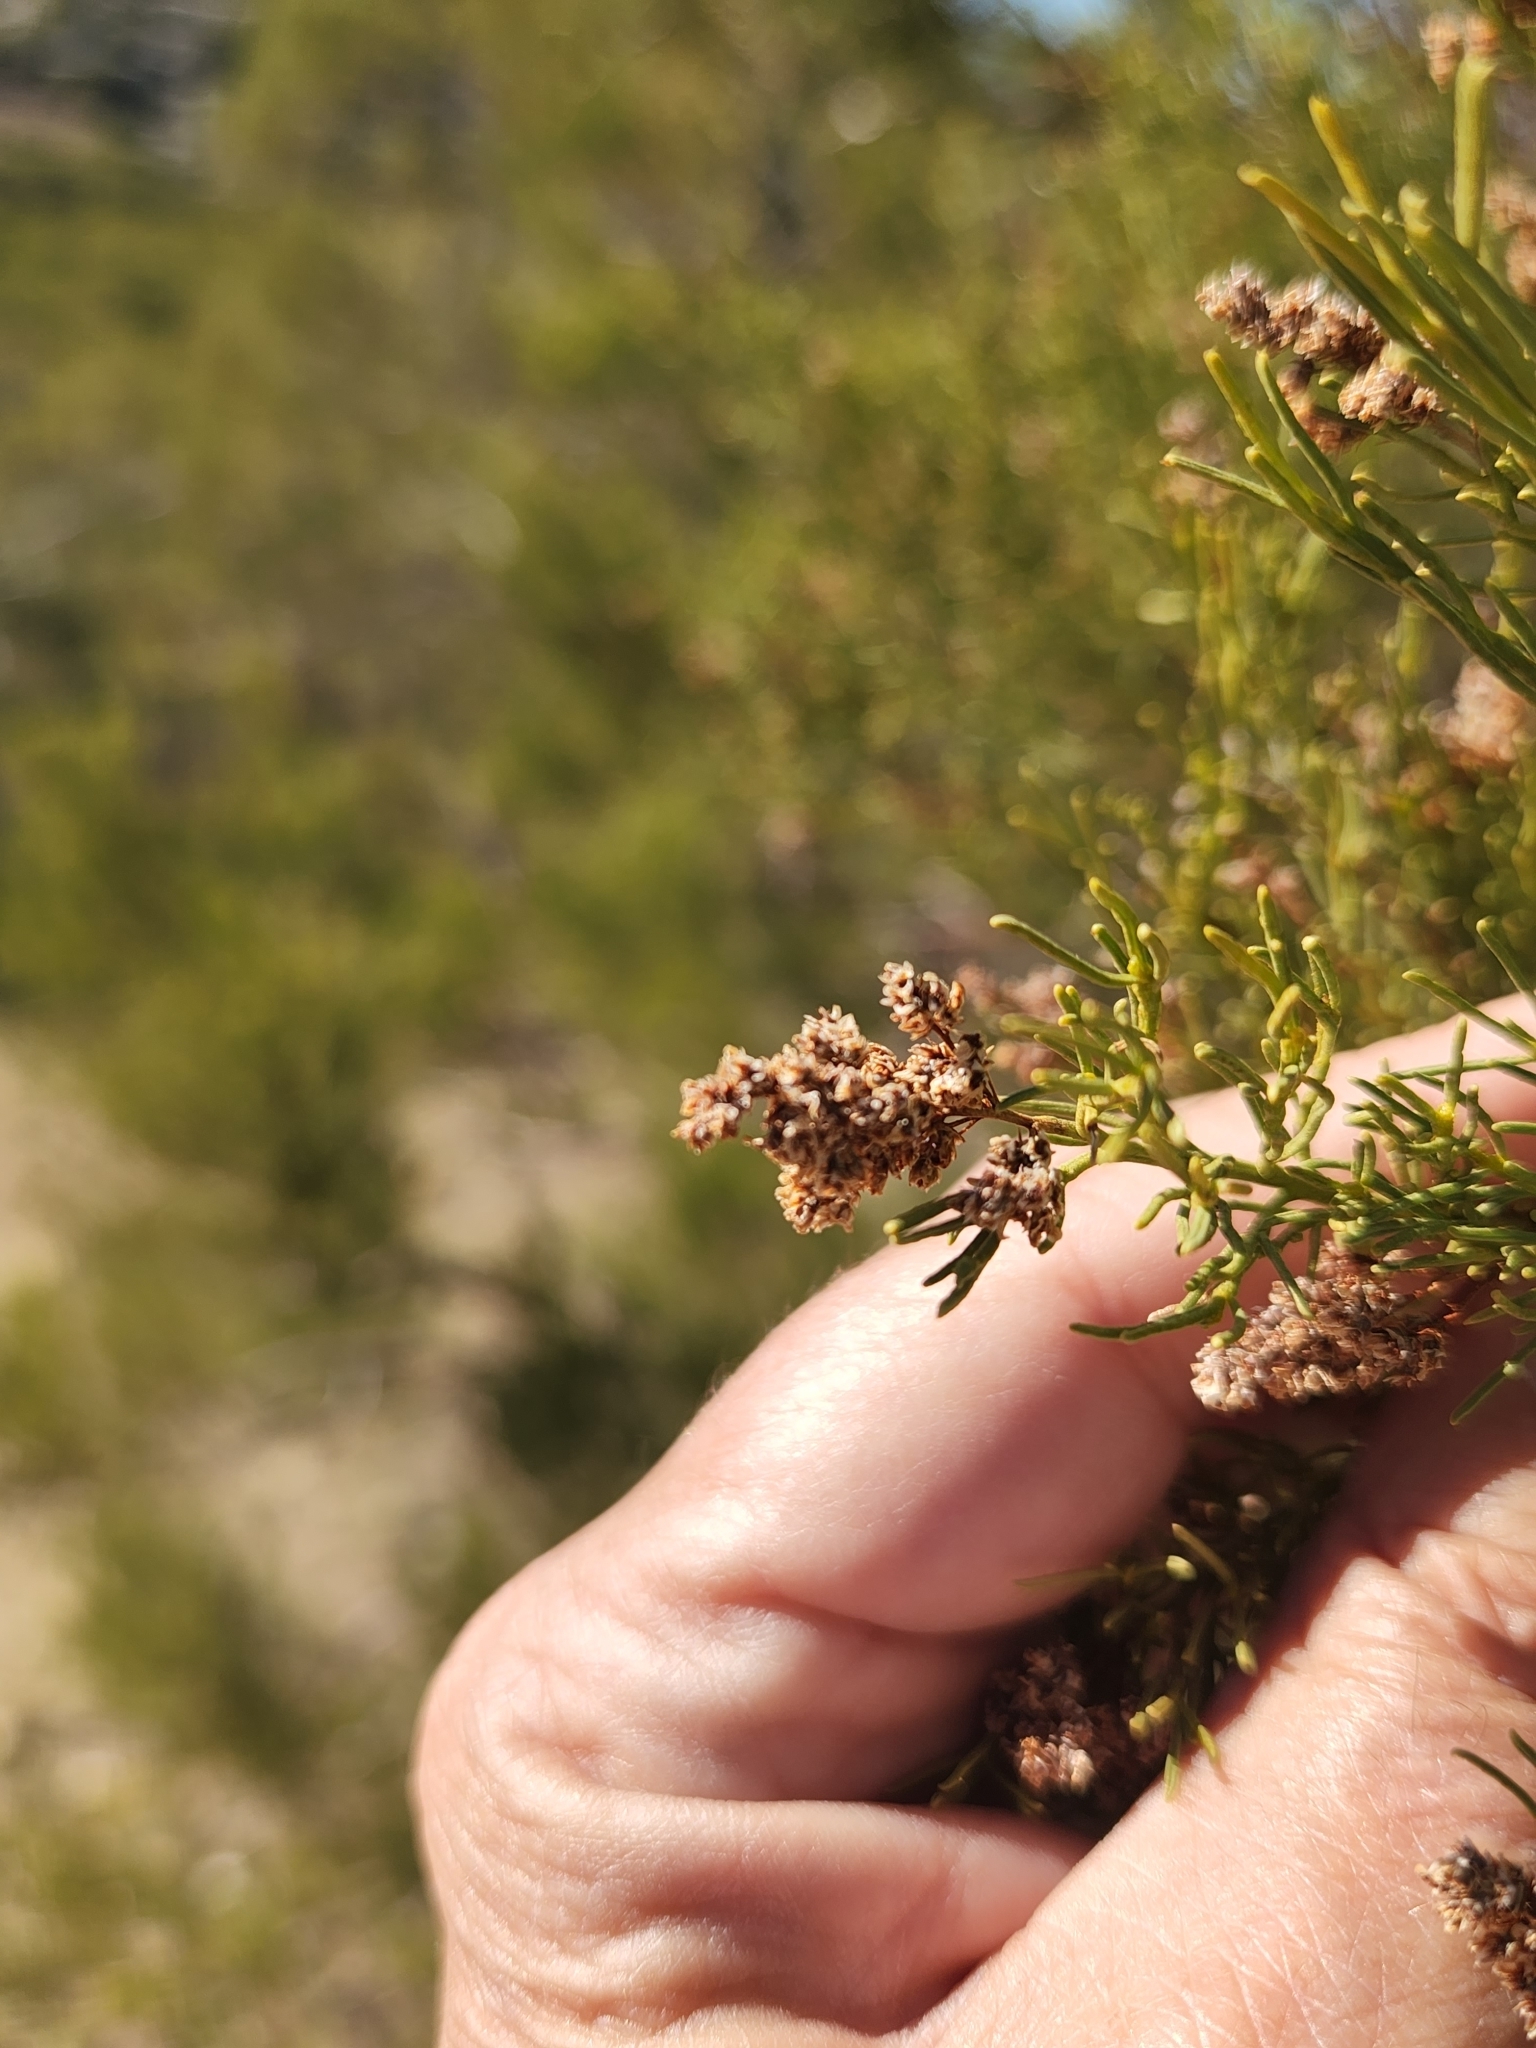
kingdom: Plantae
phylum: Tracheophyta
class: Magnoliopsida
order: Rosales
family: Rosaceae
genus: Adenostoma
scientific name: Adenostoma sparsifolium
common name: Red shank
